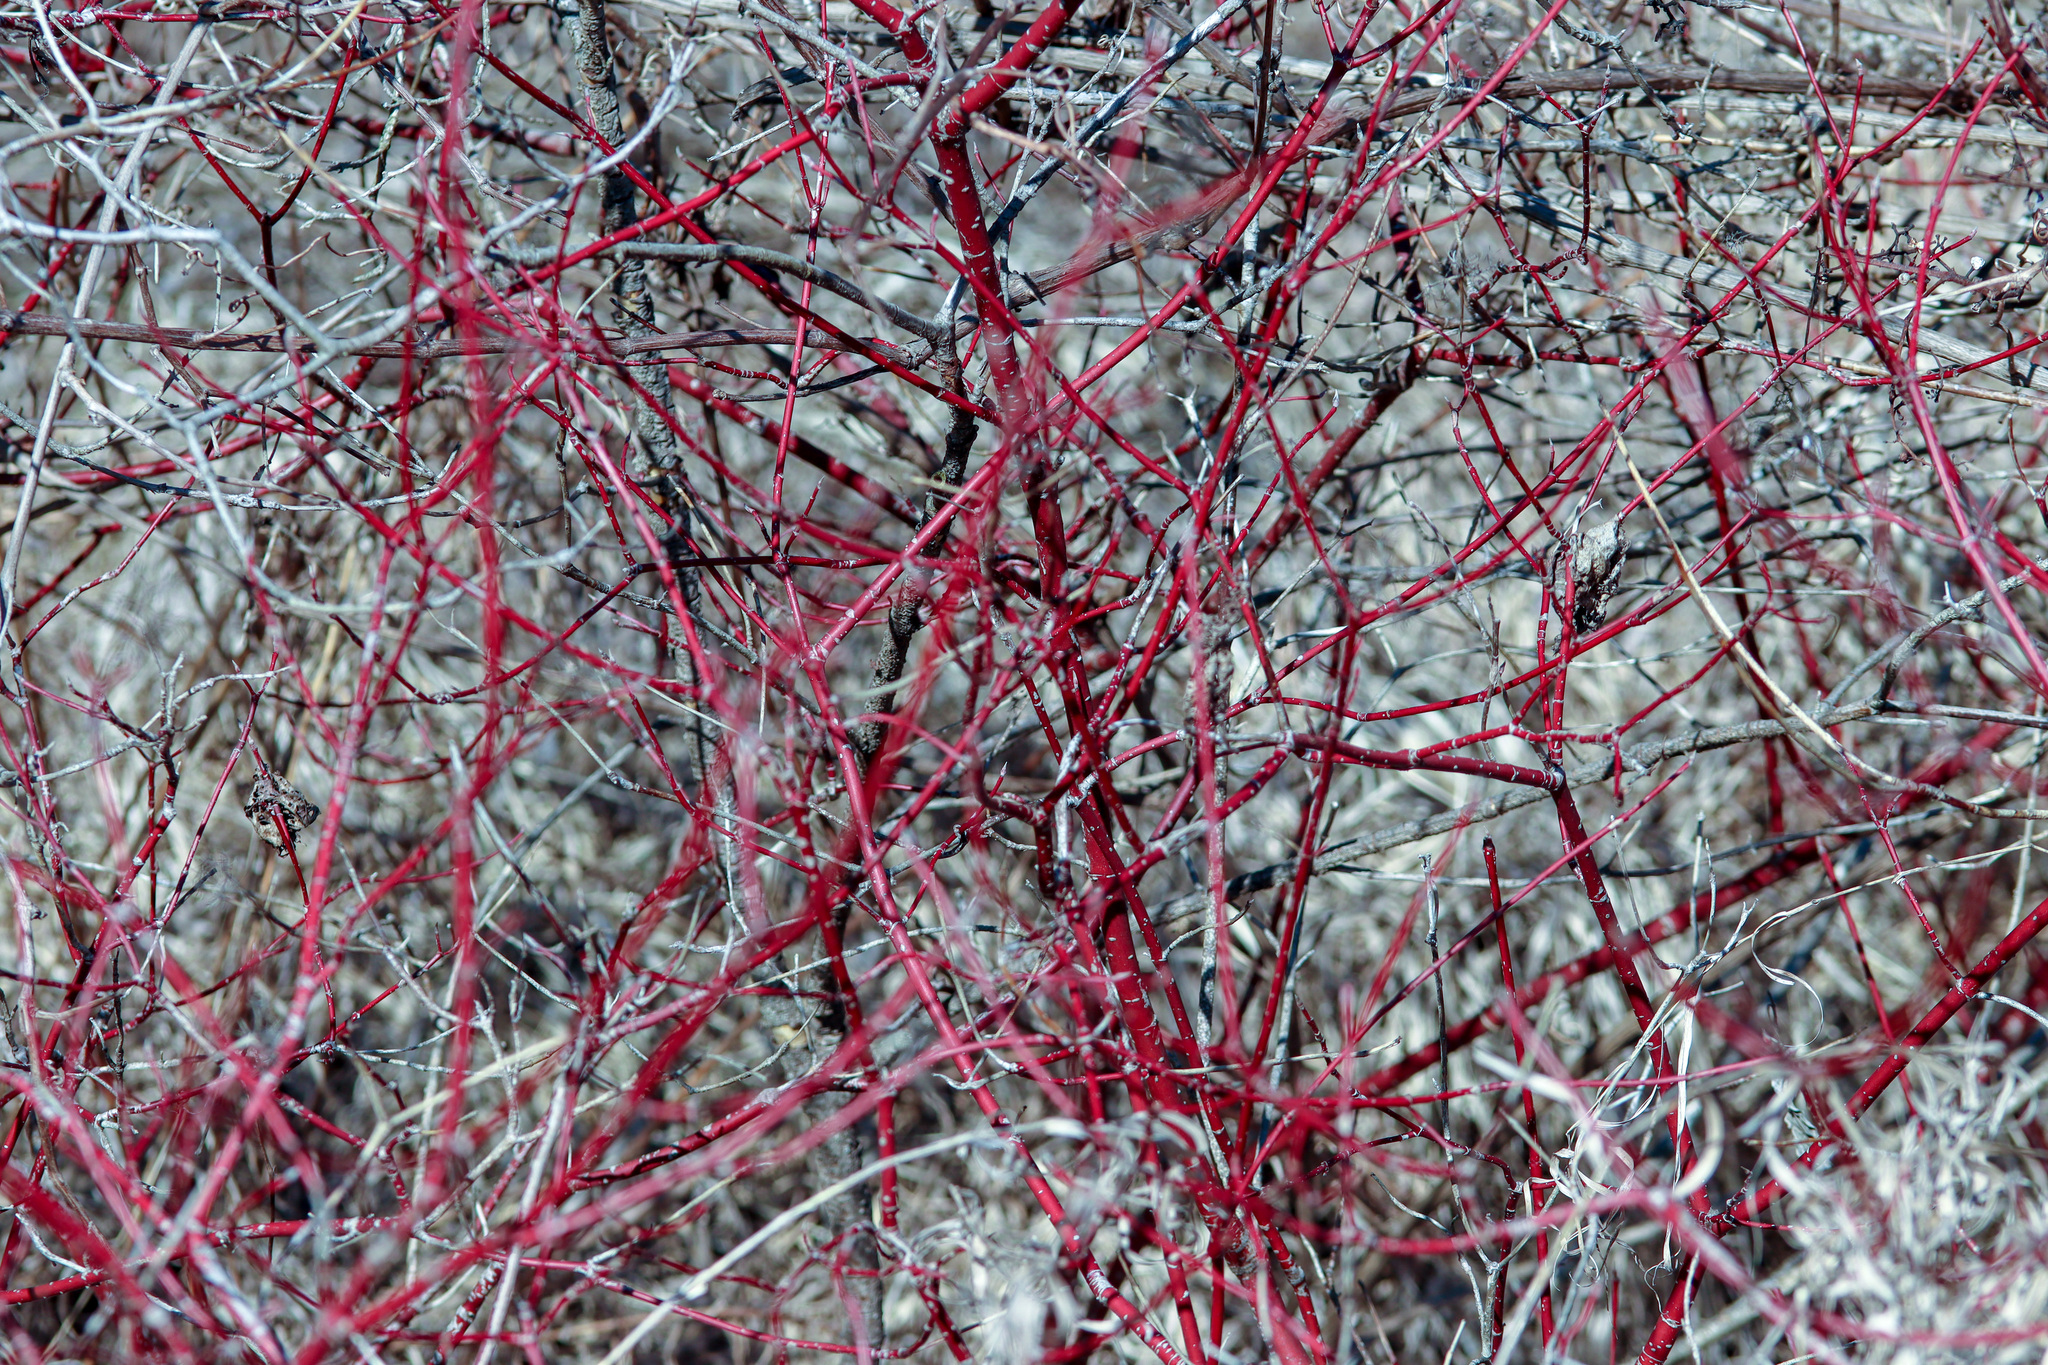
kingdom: Plantae
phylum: Tracheophyta
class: Magnoliopsida
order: Cornales
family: Cornaceae
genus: Cornus
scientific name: Cornus sericea
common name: Red-osier dogwood
